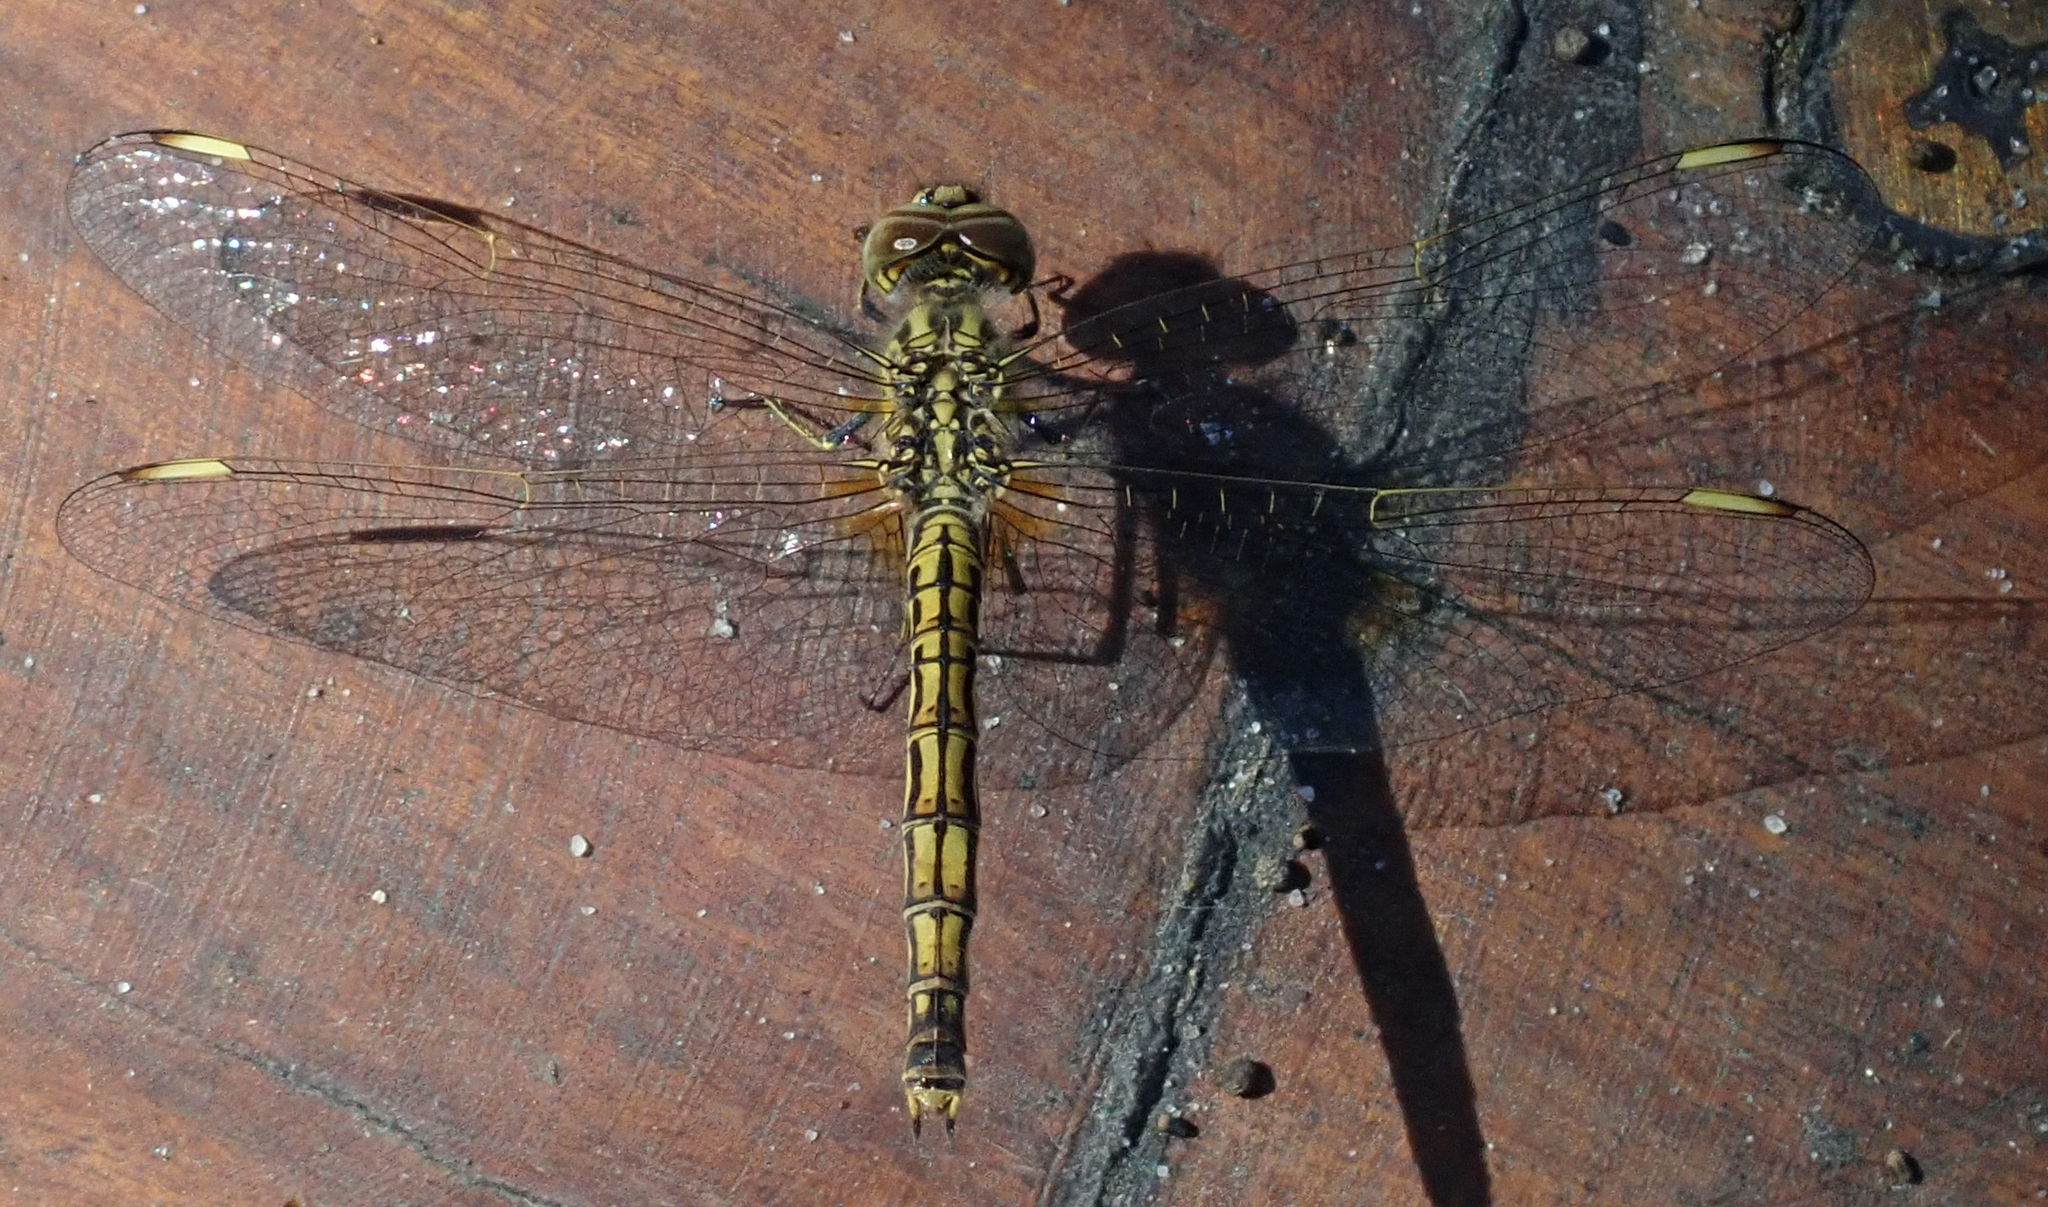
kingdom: Animalia
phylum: Arthropoda
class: Insecta
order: Odonata
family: Libellulidae
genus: Brachythemis
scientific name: Brachythemis leucosticta
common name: Banded groundling
